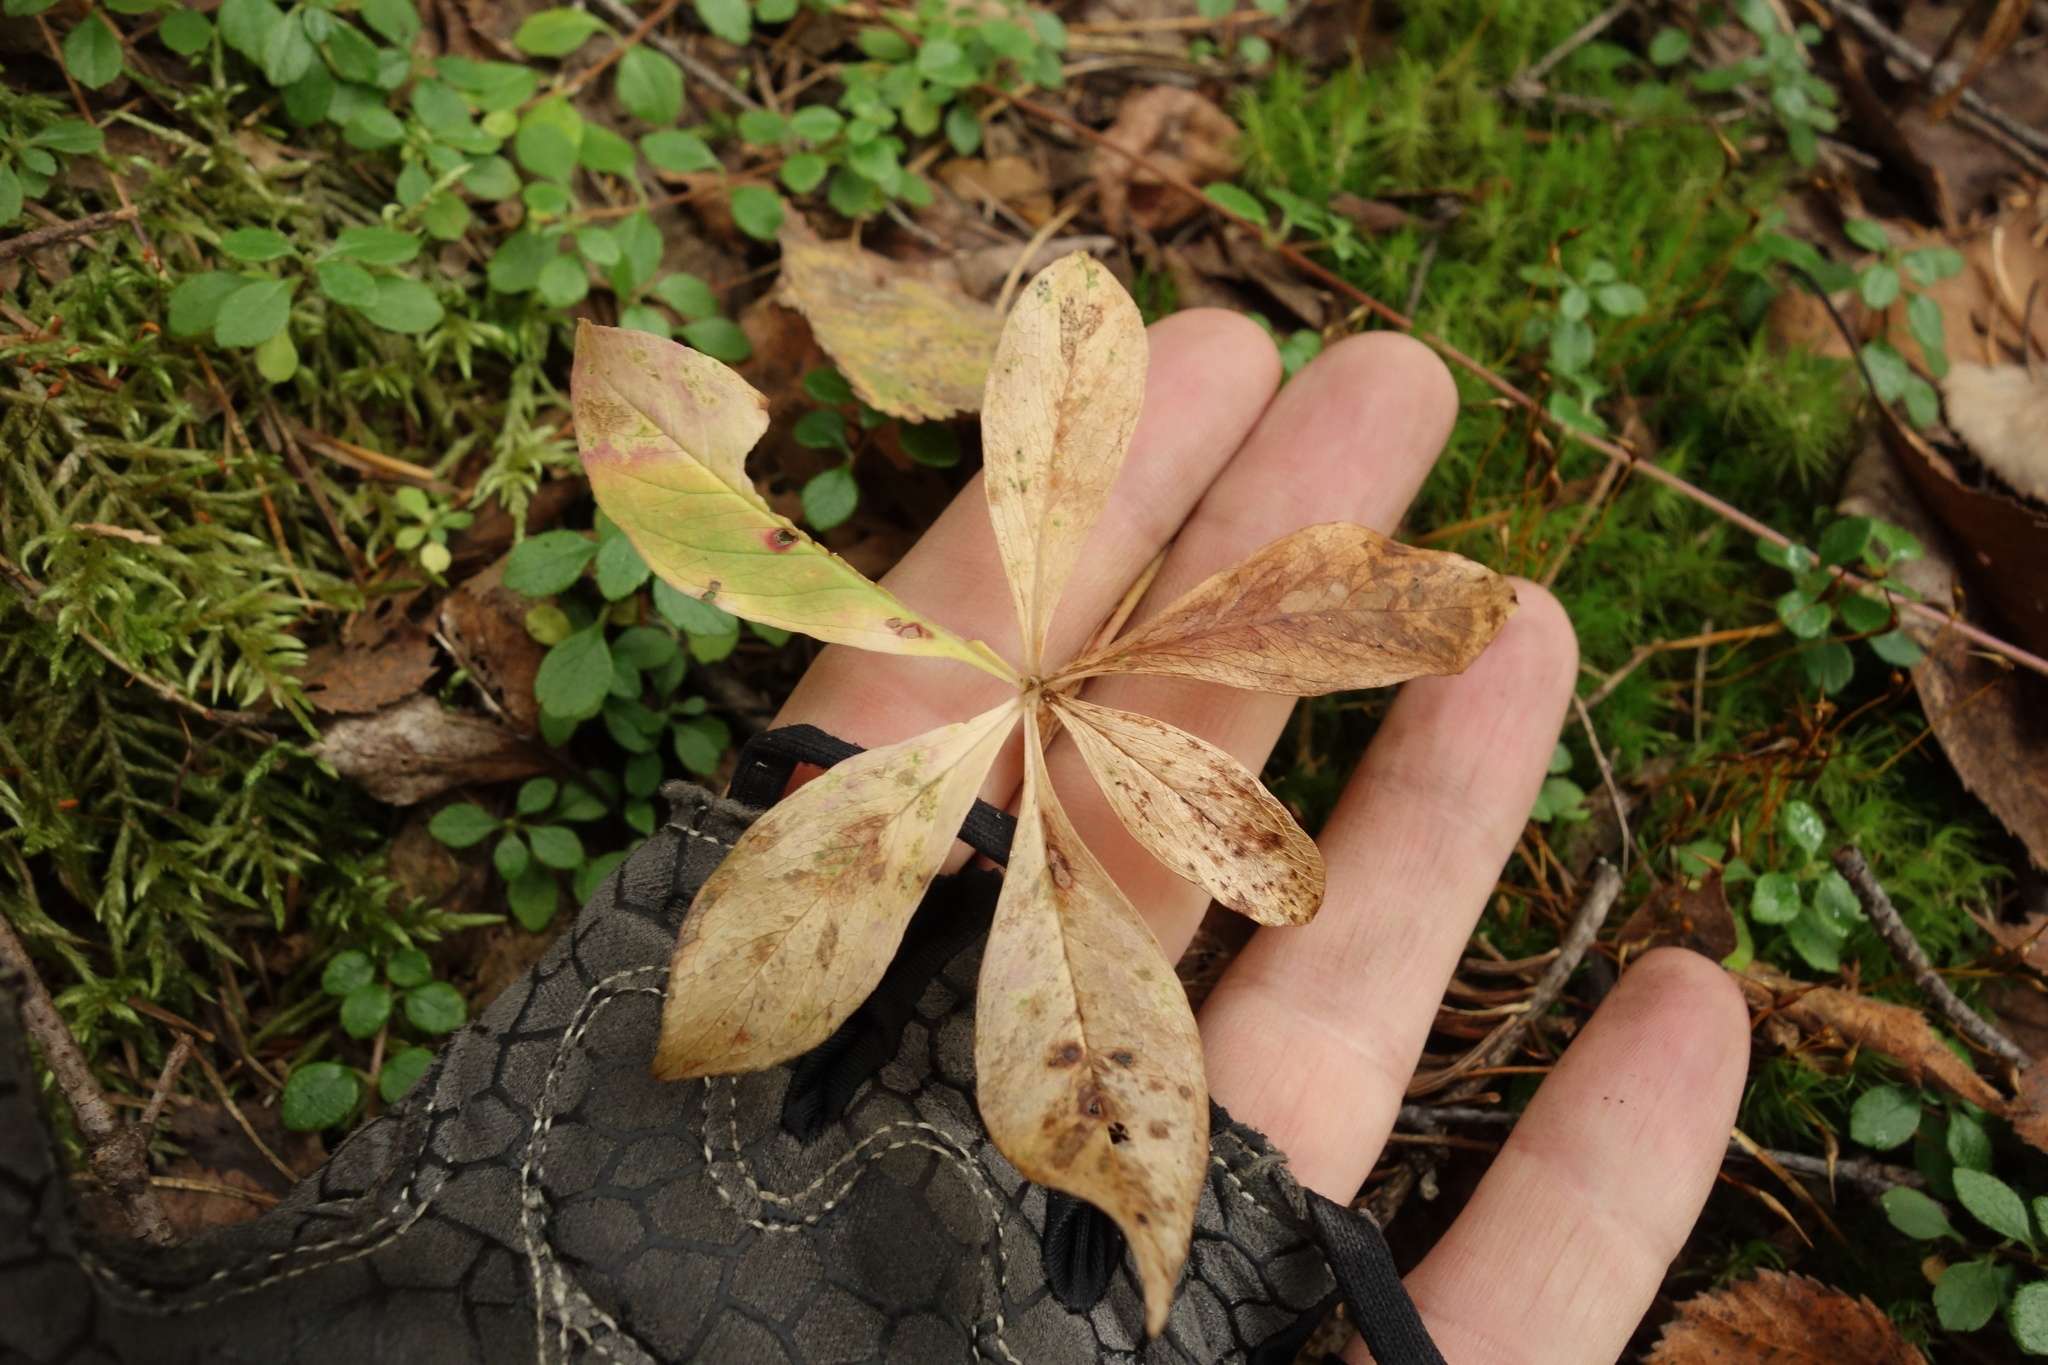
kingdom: Plantae
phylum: Tracheophyta
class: Magnoliopsida
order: Ericales
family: Primulaceae
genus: Lysimachia
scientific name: Lysimachia europaea
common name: Arctic starflower
